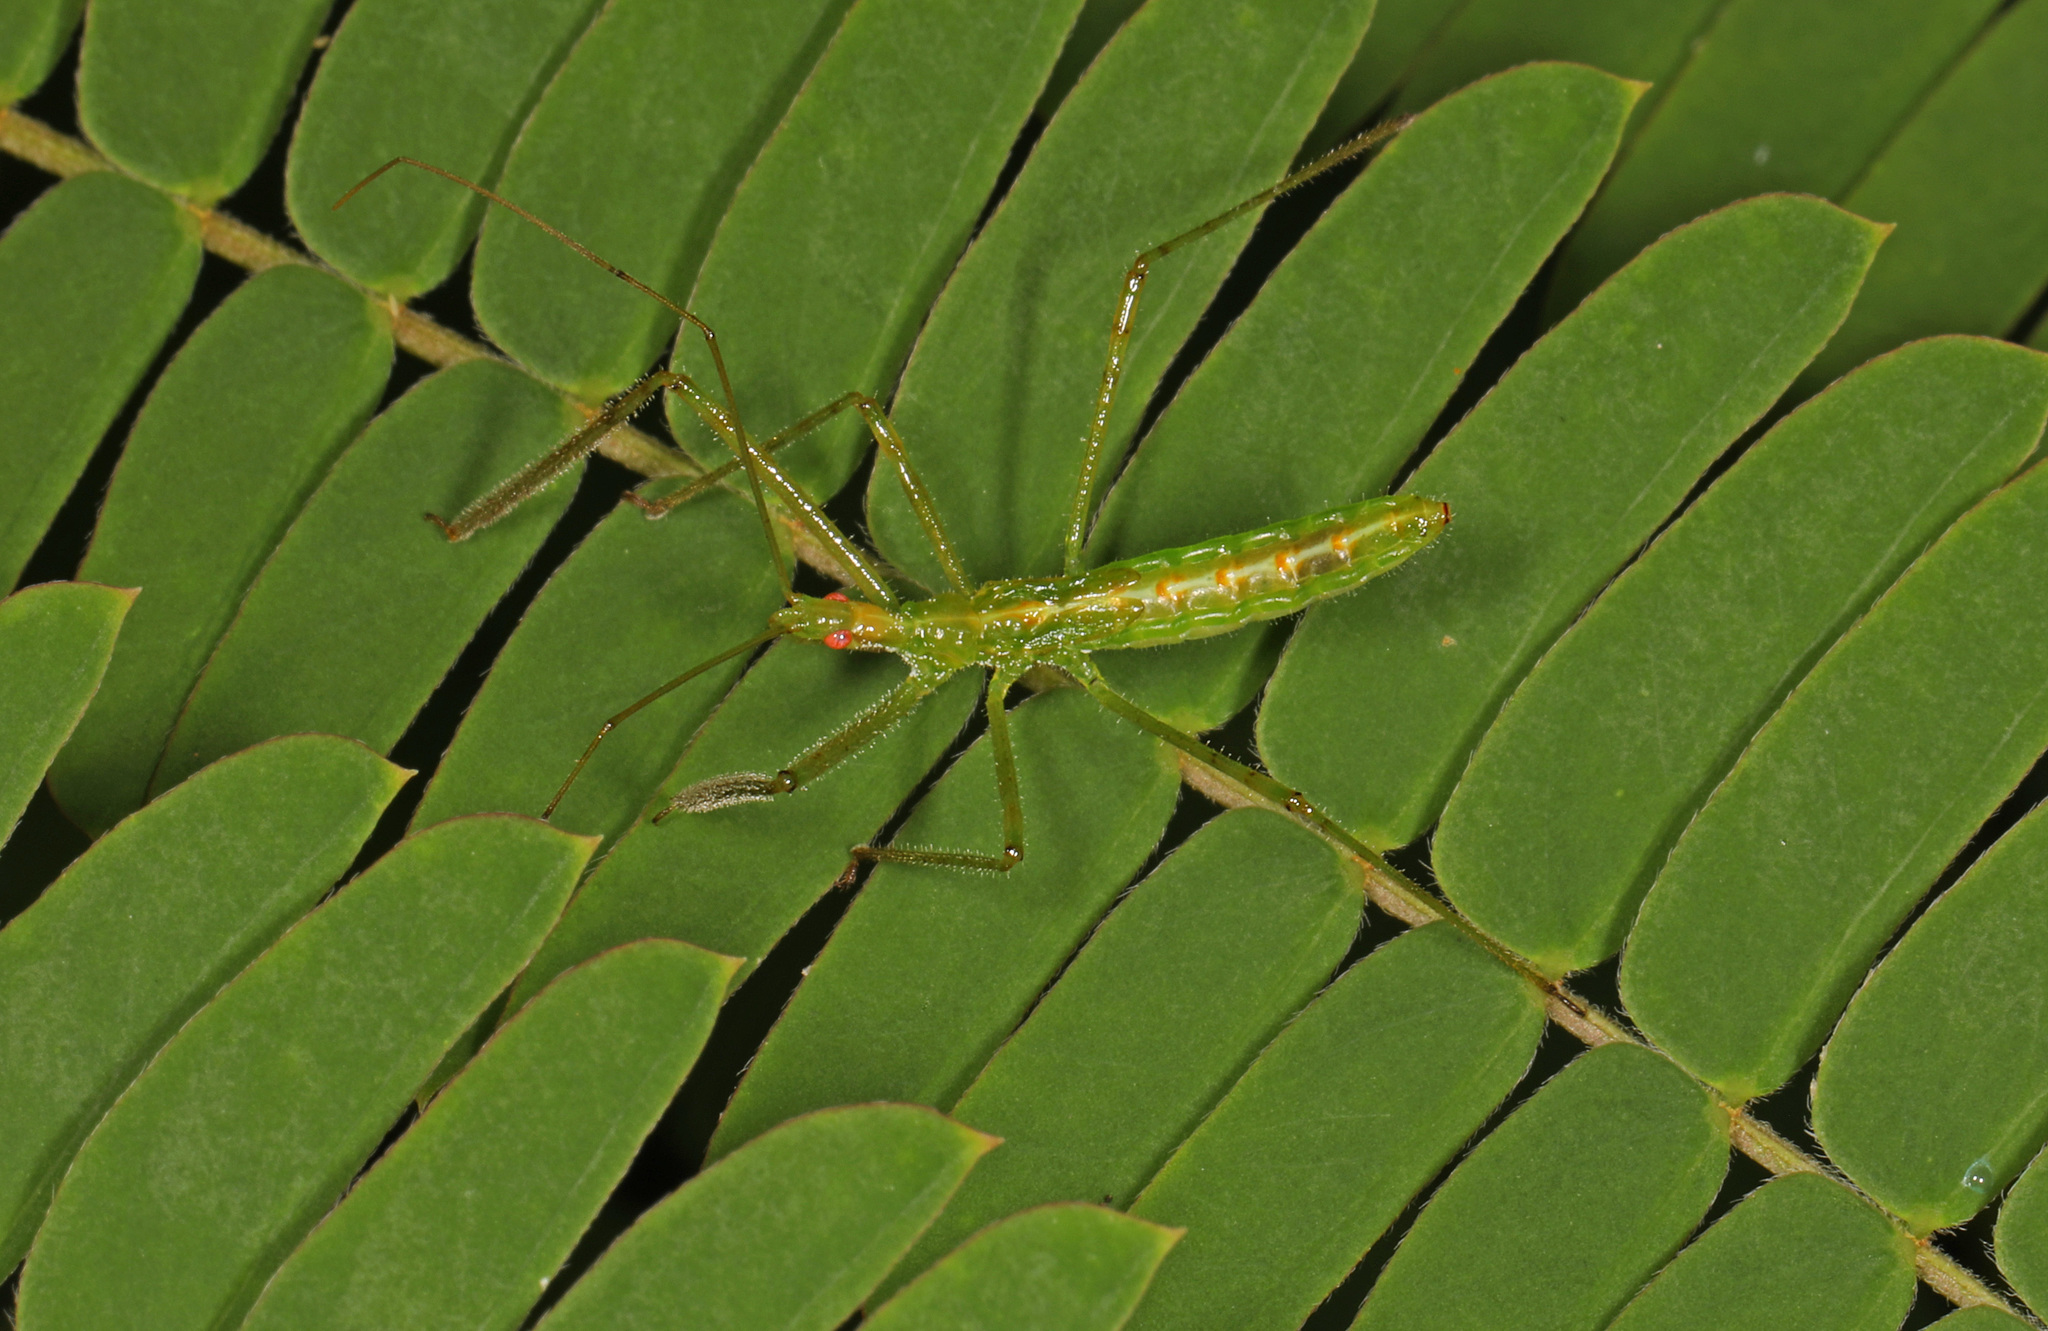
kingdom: Animalia
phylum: Arthropoda
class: Insecta
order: Hemiptera
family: Reduviidae
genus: Zelus
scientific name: Zelus luridus
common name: Pale green assassin bug
